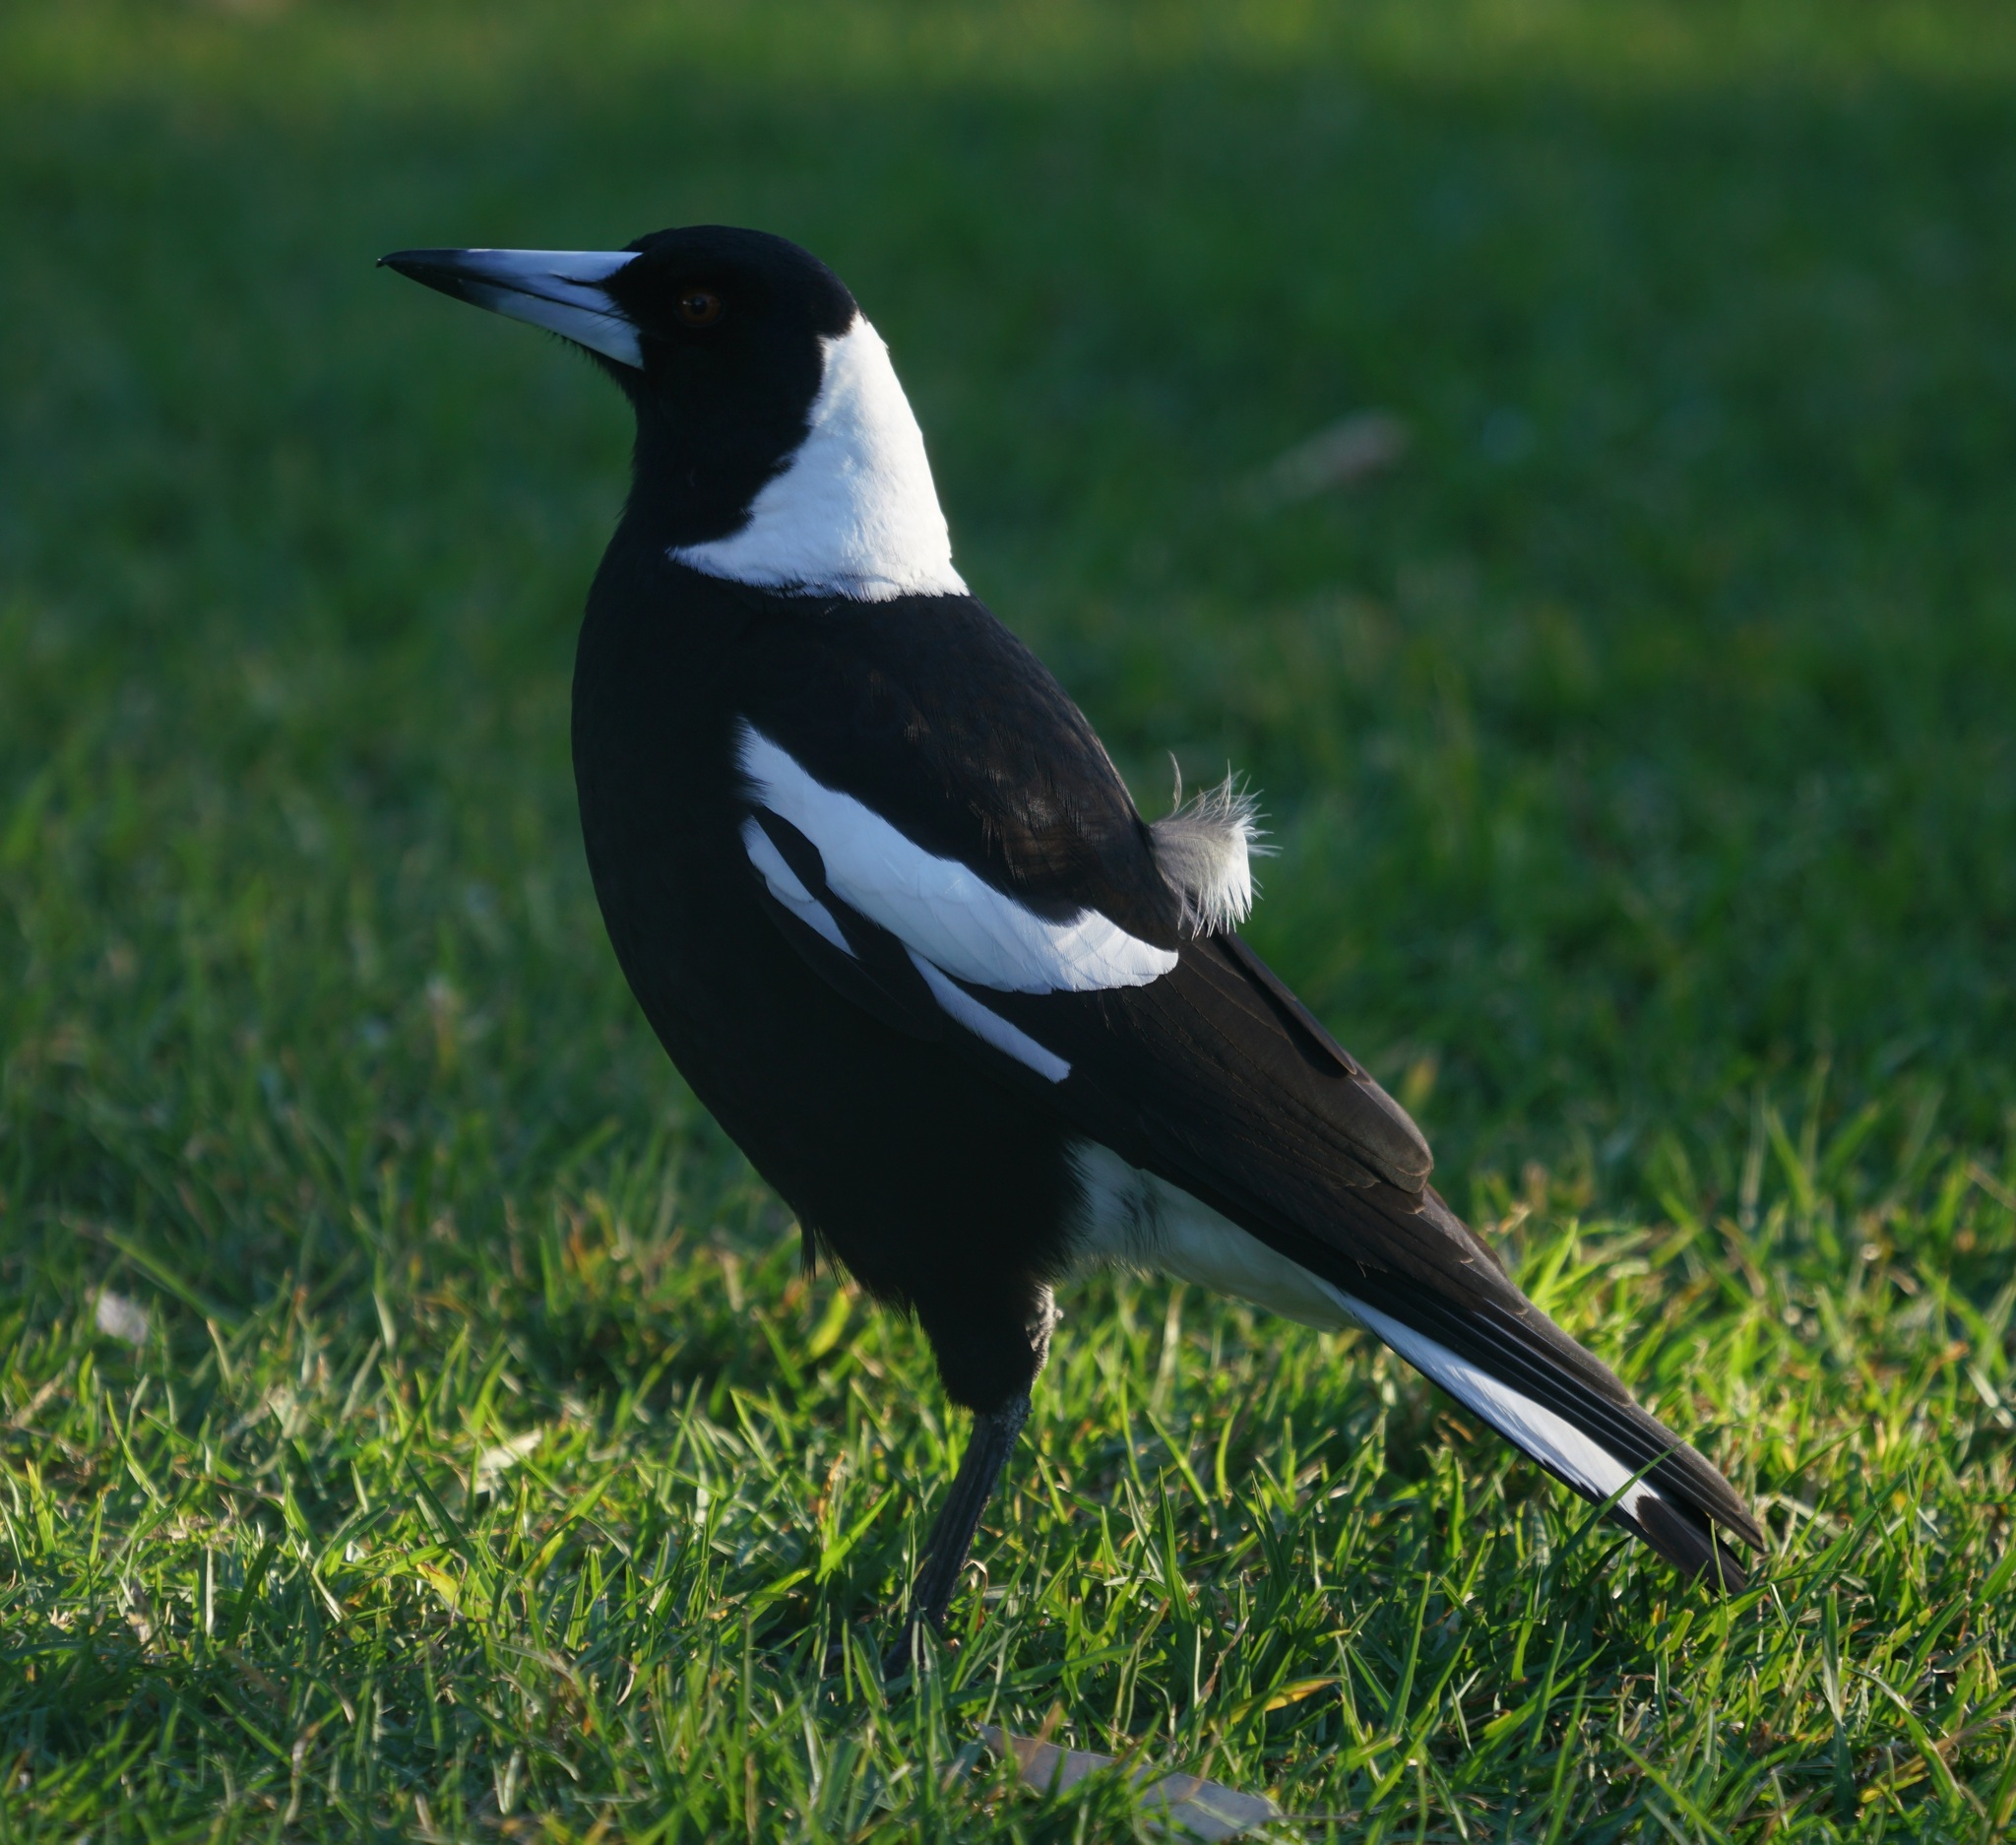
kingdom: Animalia
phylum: Chordata
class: Aves
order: Passeriformes
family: Cracticidae
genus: Gymnorhina
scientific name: Gymnorhina tibicen
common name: Australian magpie
